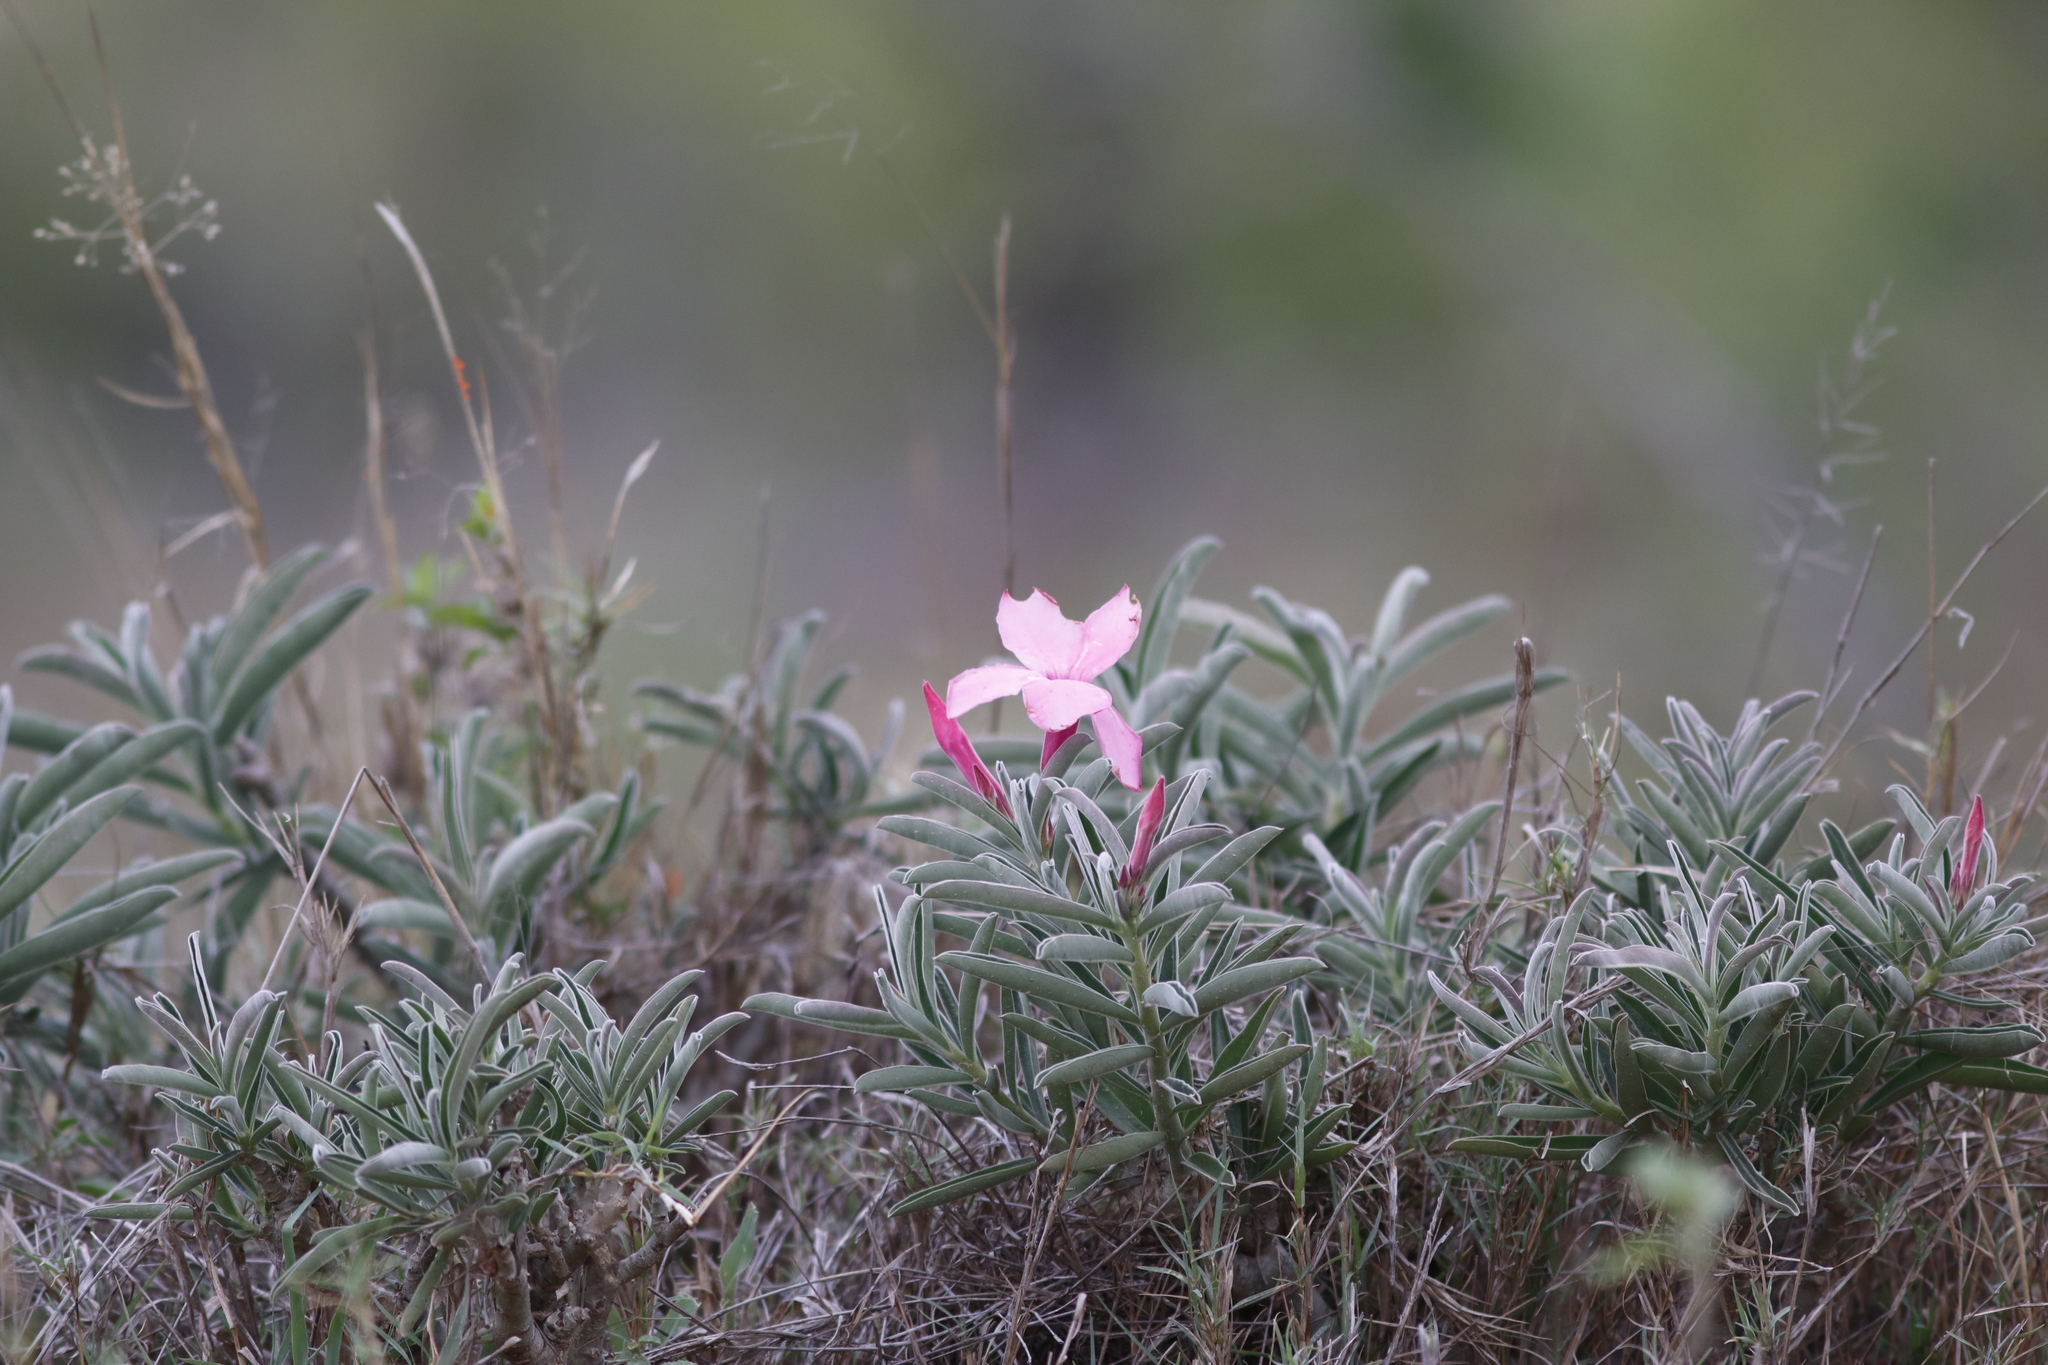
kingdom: Plantae
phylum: Tracheophyta
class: Magnoliopsida
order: Gentianales
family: Apocynaceae
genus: Adenium
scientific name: Adenium obesum
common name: Desert-rose
